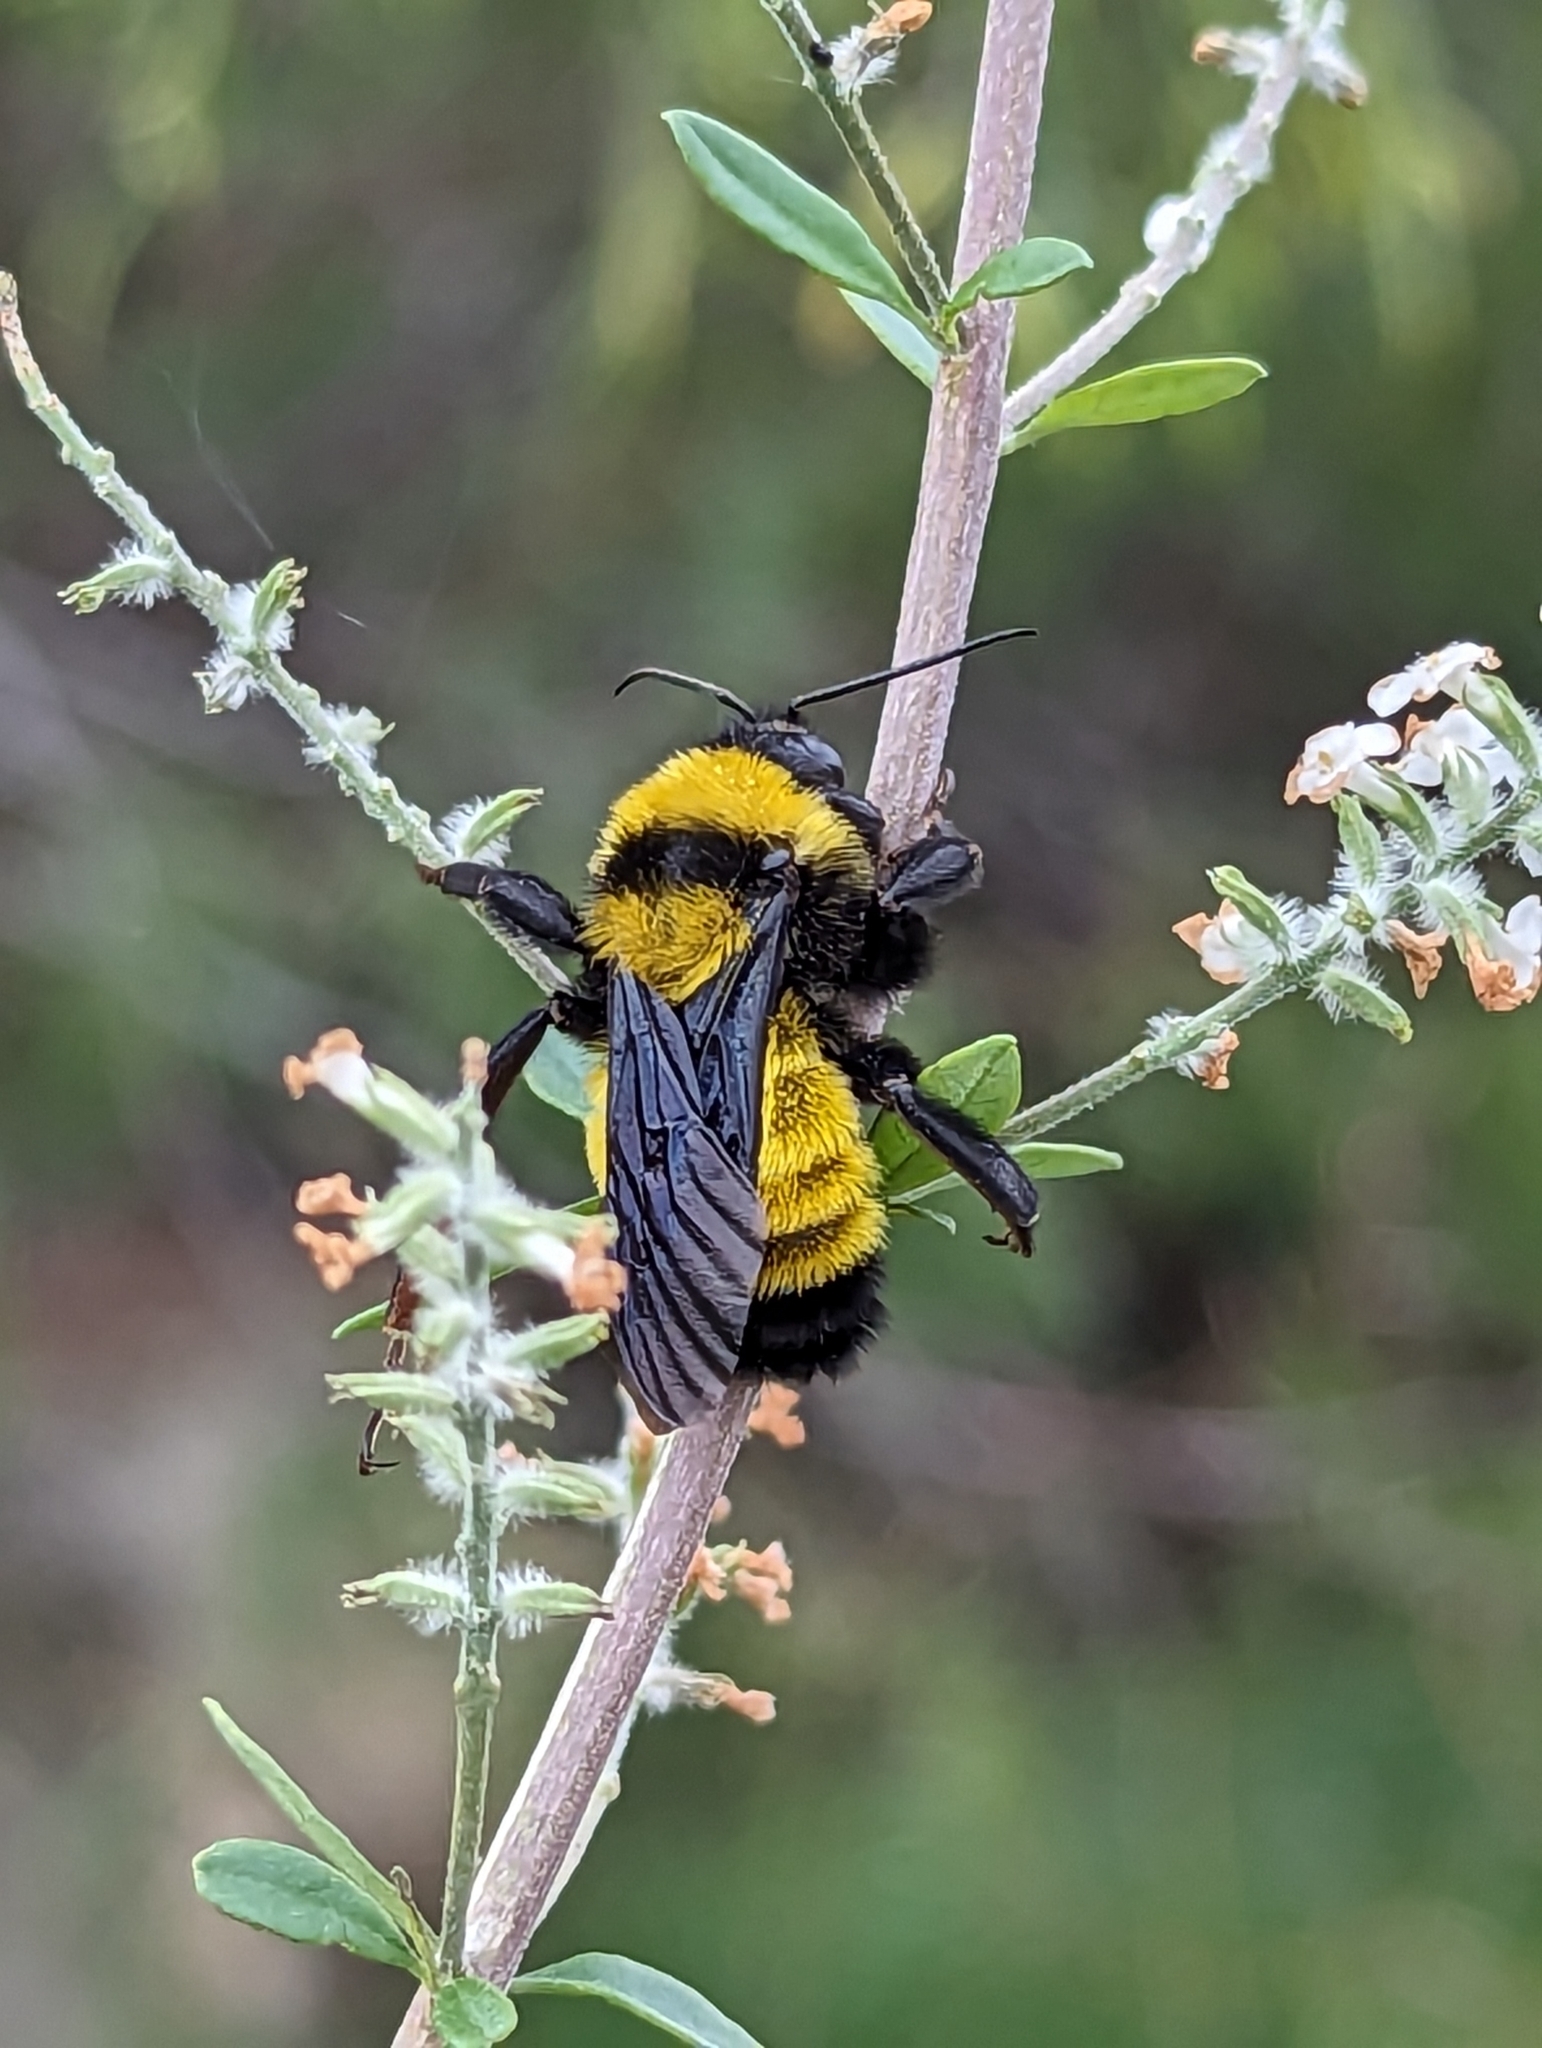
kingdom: Animalia
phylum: Arthropoda
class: Insecta
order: Hymenoptera
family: Apidae
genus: Bombus
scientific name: Bombus sonorus
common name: Sonoran bumble bee
